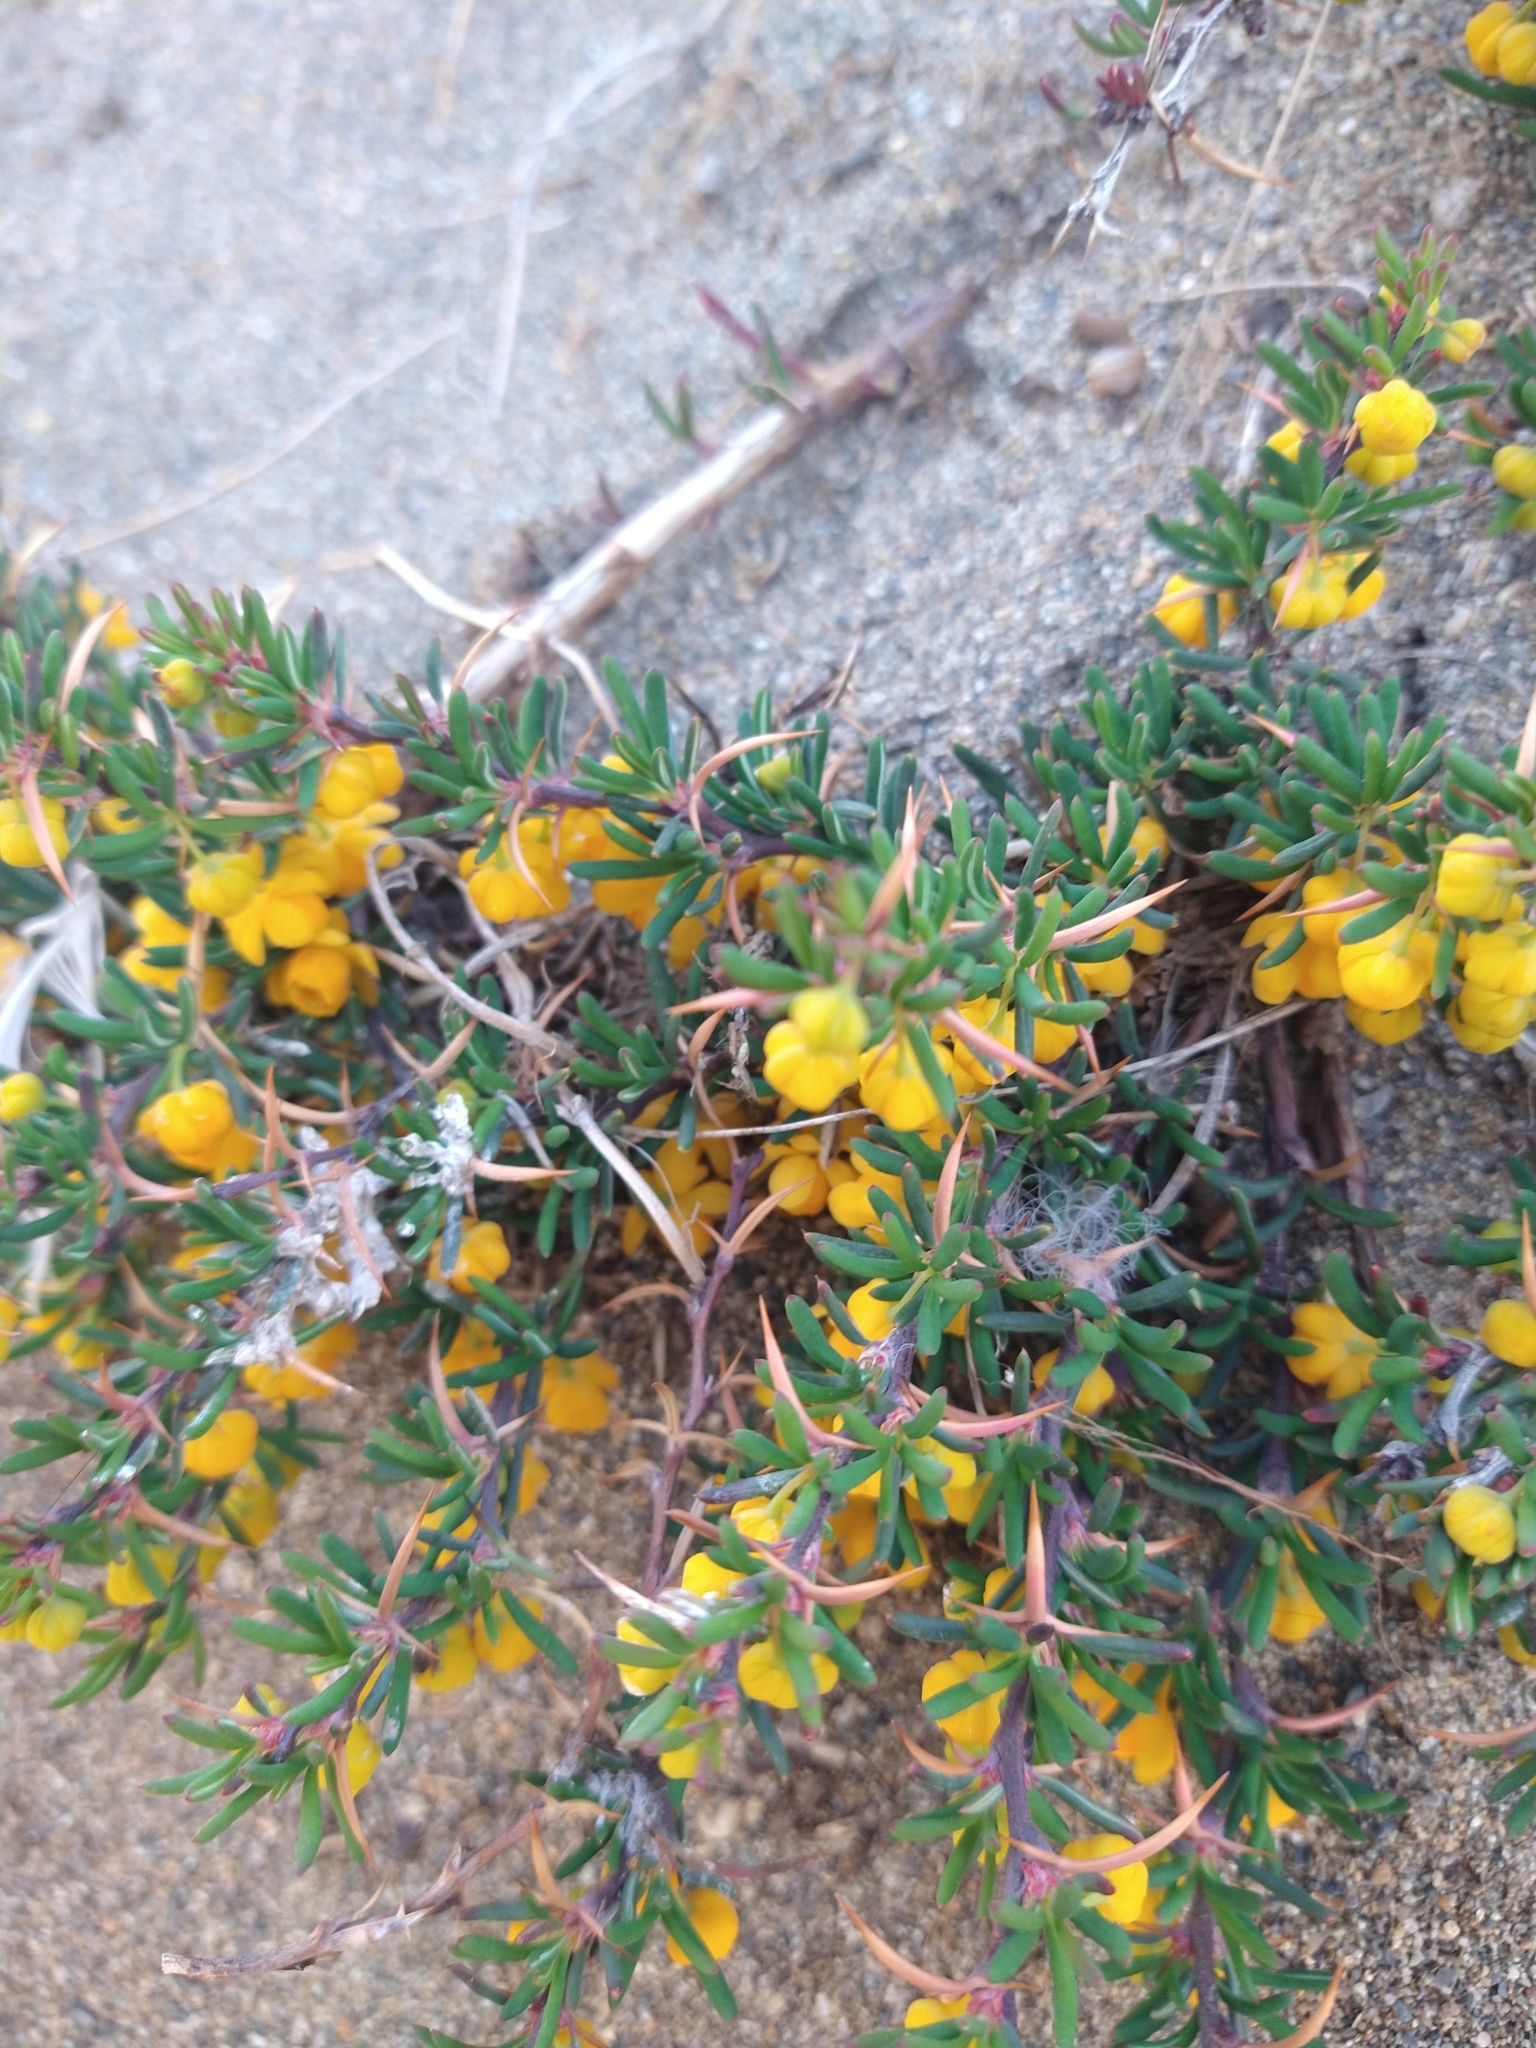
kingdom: Plantae
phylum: Tracheophyta
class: Magnoliopsida
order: Ranunculales
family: Berberidaceae
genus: Berberis
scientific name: Berberis empetrifolia
